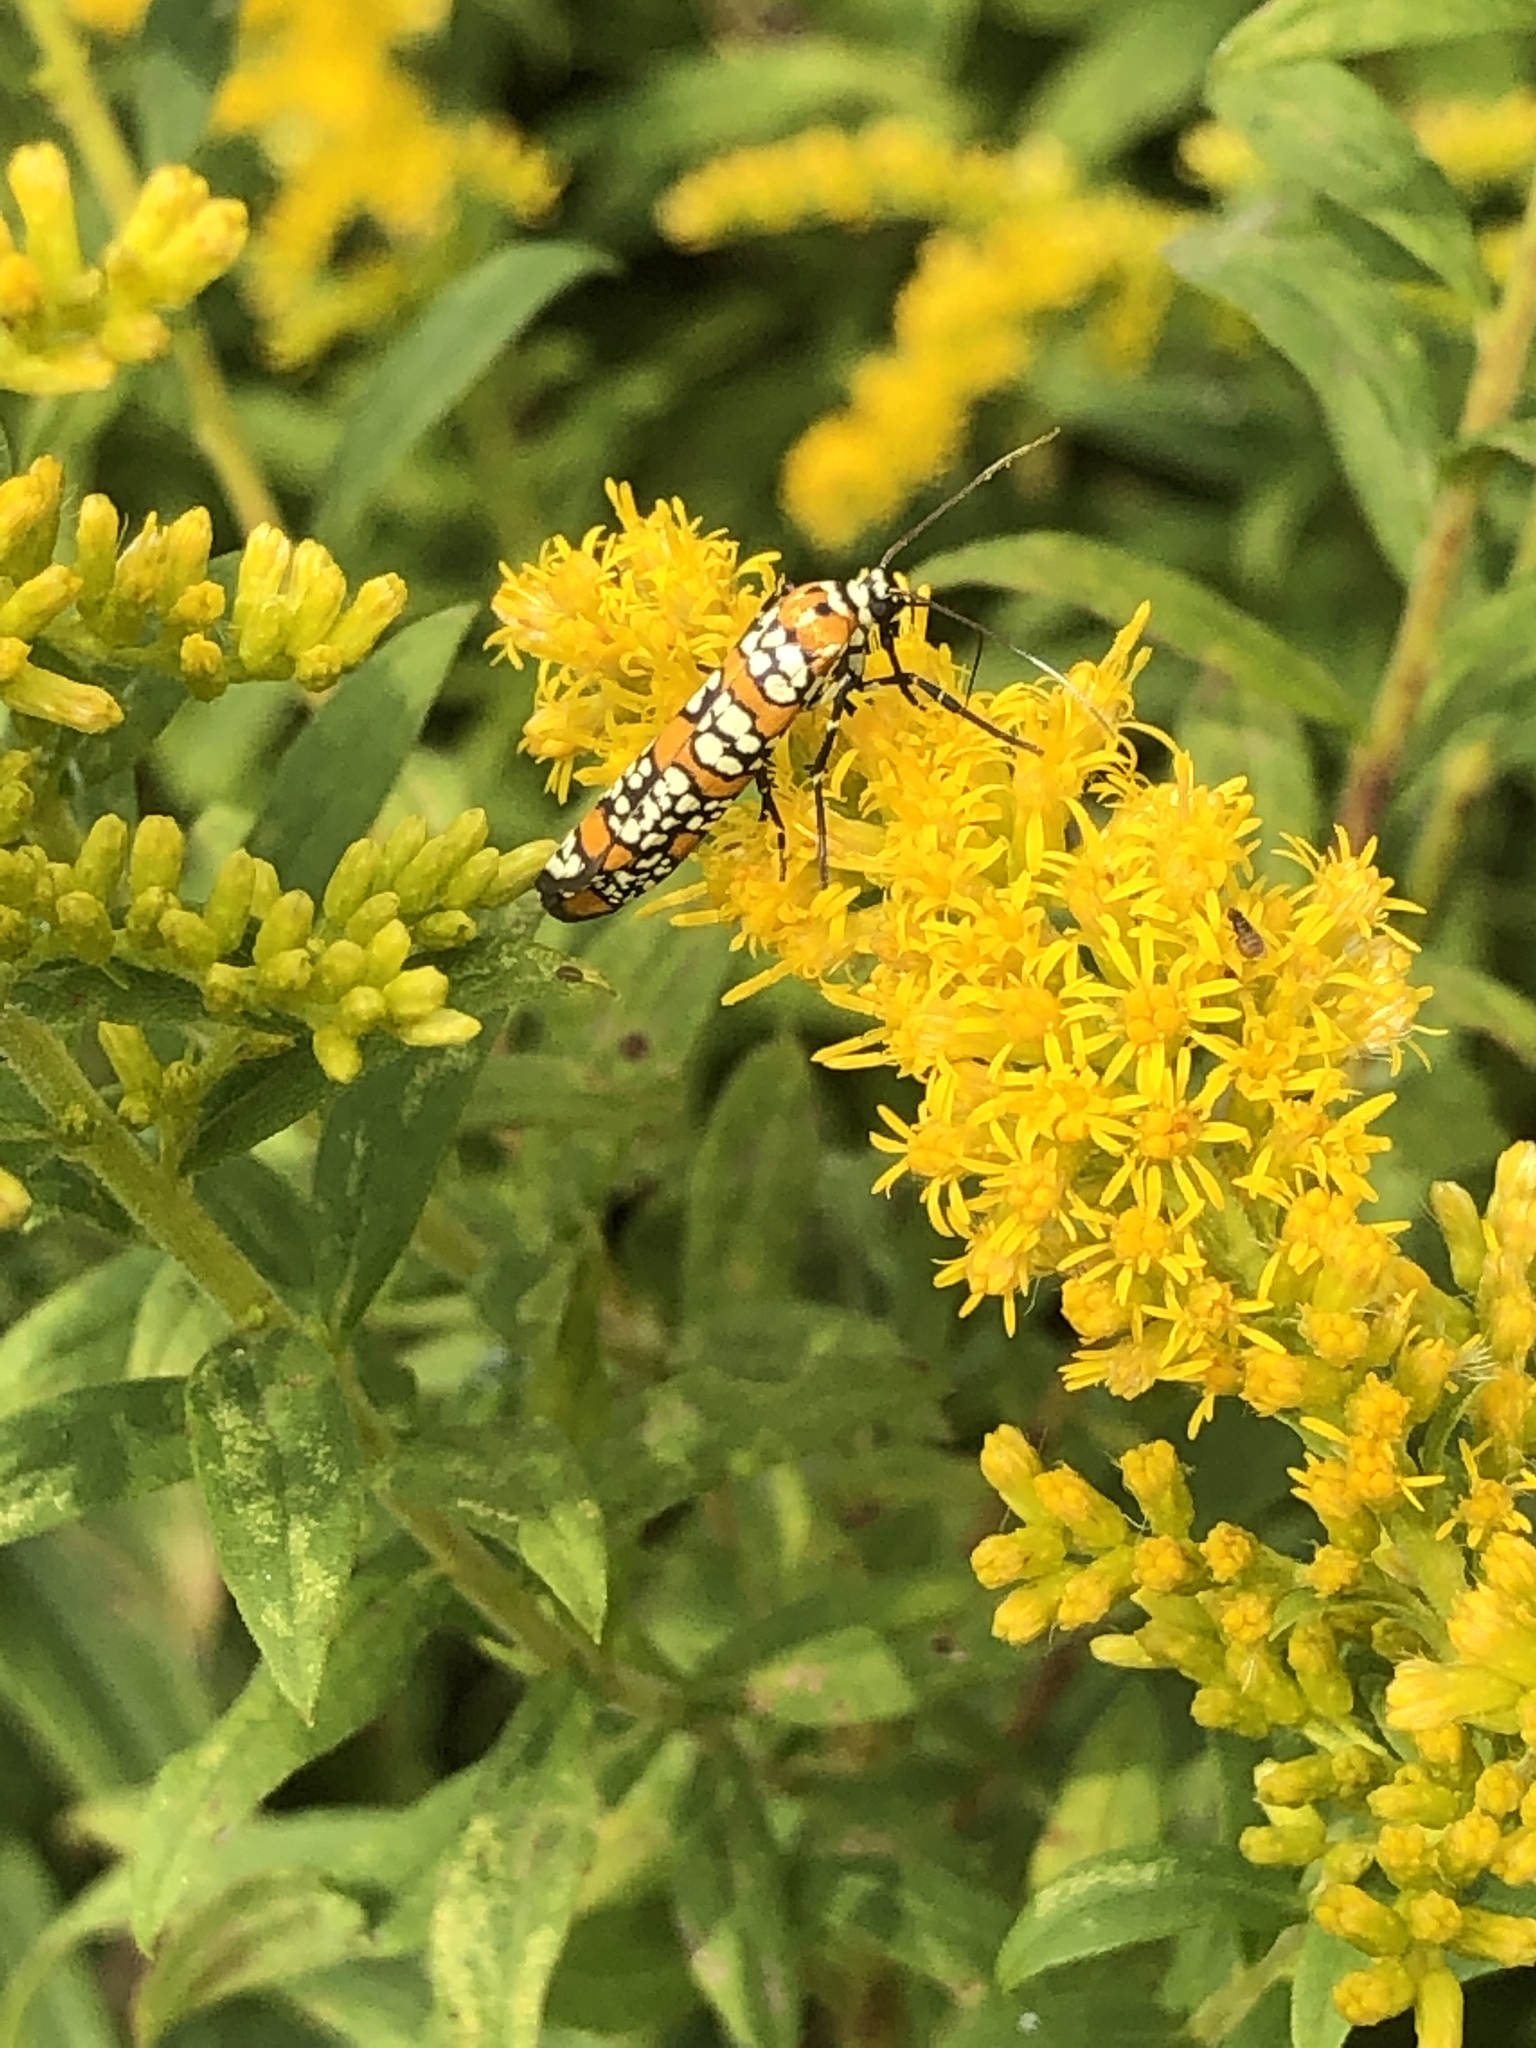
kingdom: Animalia
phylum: Arthropoda
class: Insecta
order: Lepidoptera
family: Attevidae
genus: Atteva
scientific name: Atteva punctella
